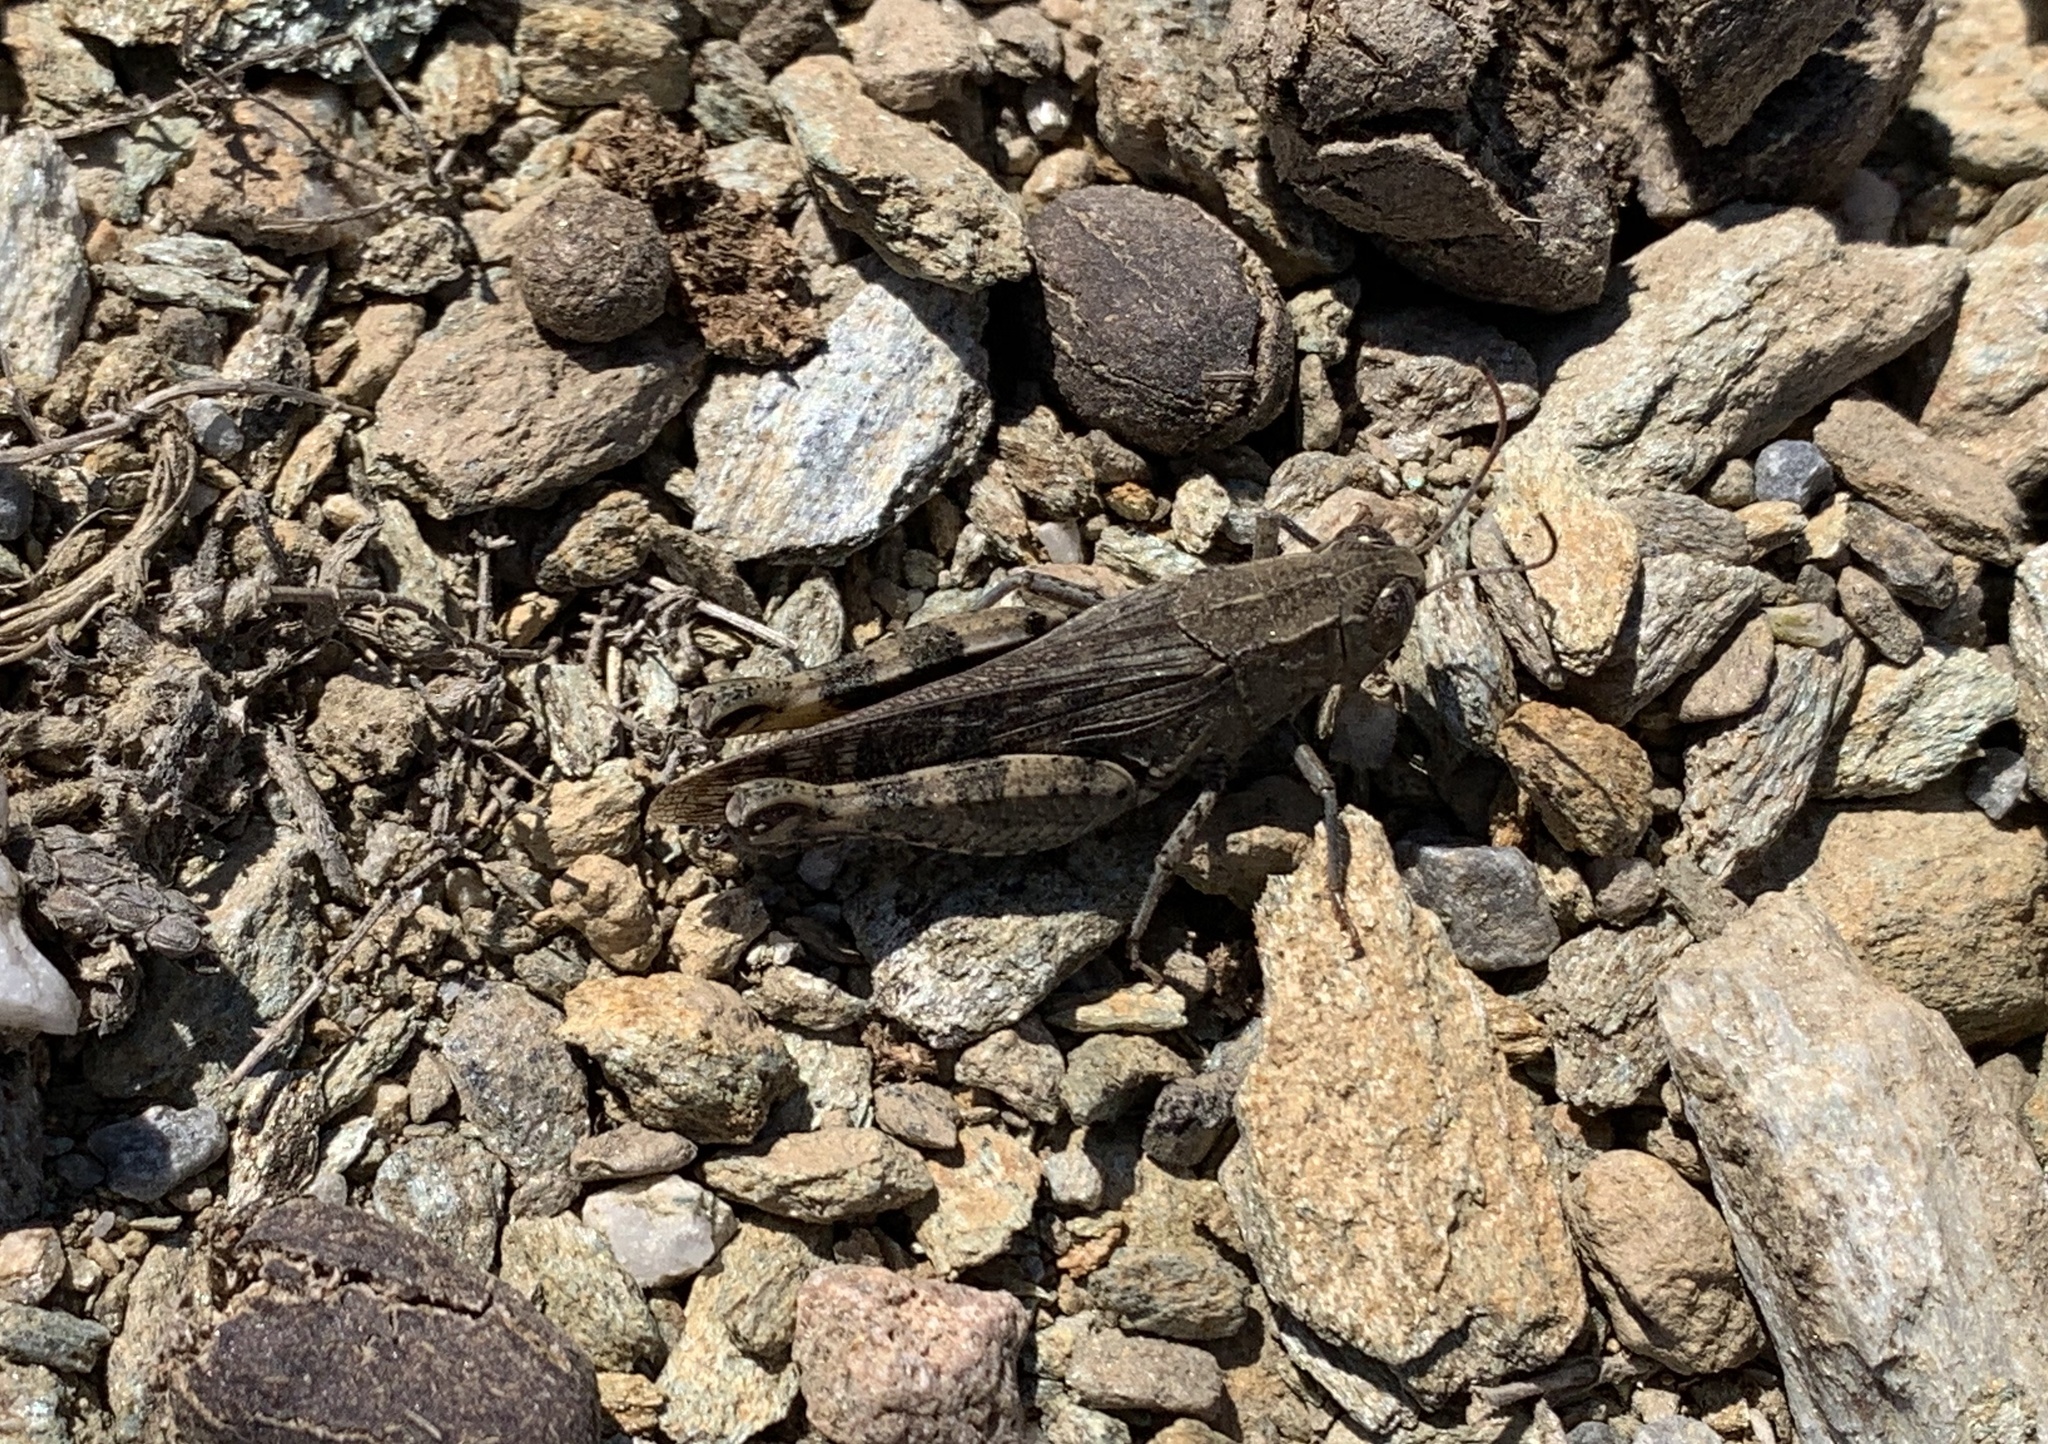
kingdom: Animalia
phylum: Arthropoda
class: Insecta
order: Orthoptera
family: Acrididae
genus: Calliptamus
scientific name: Calliptamus
